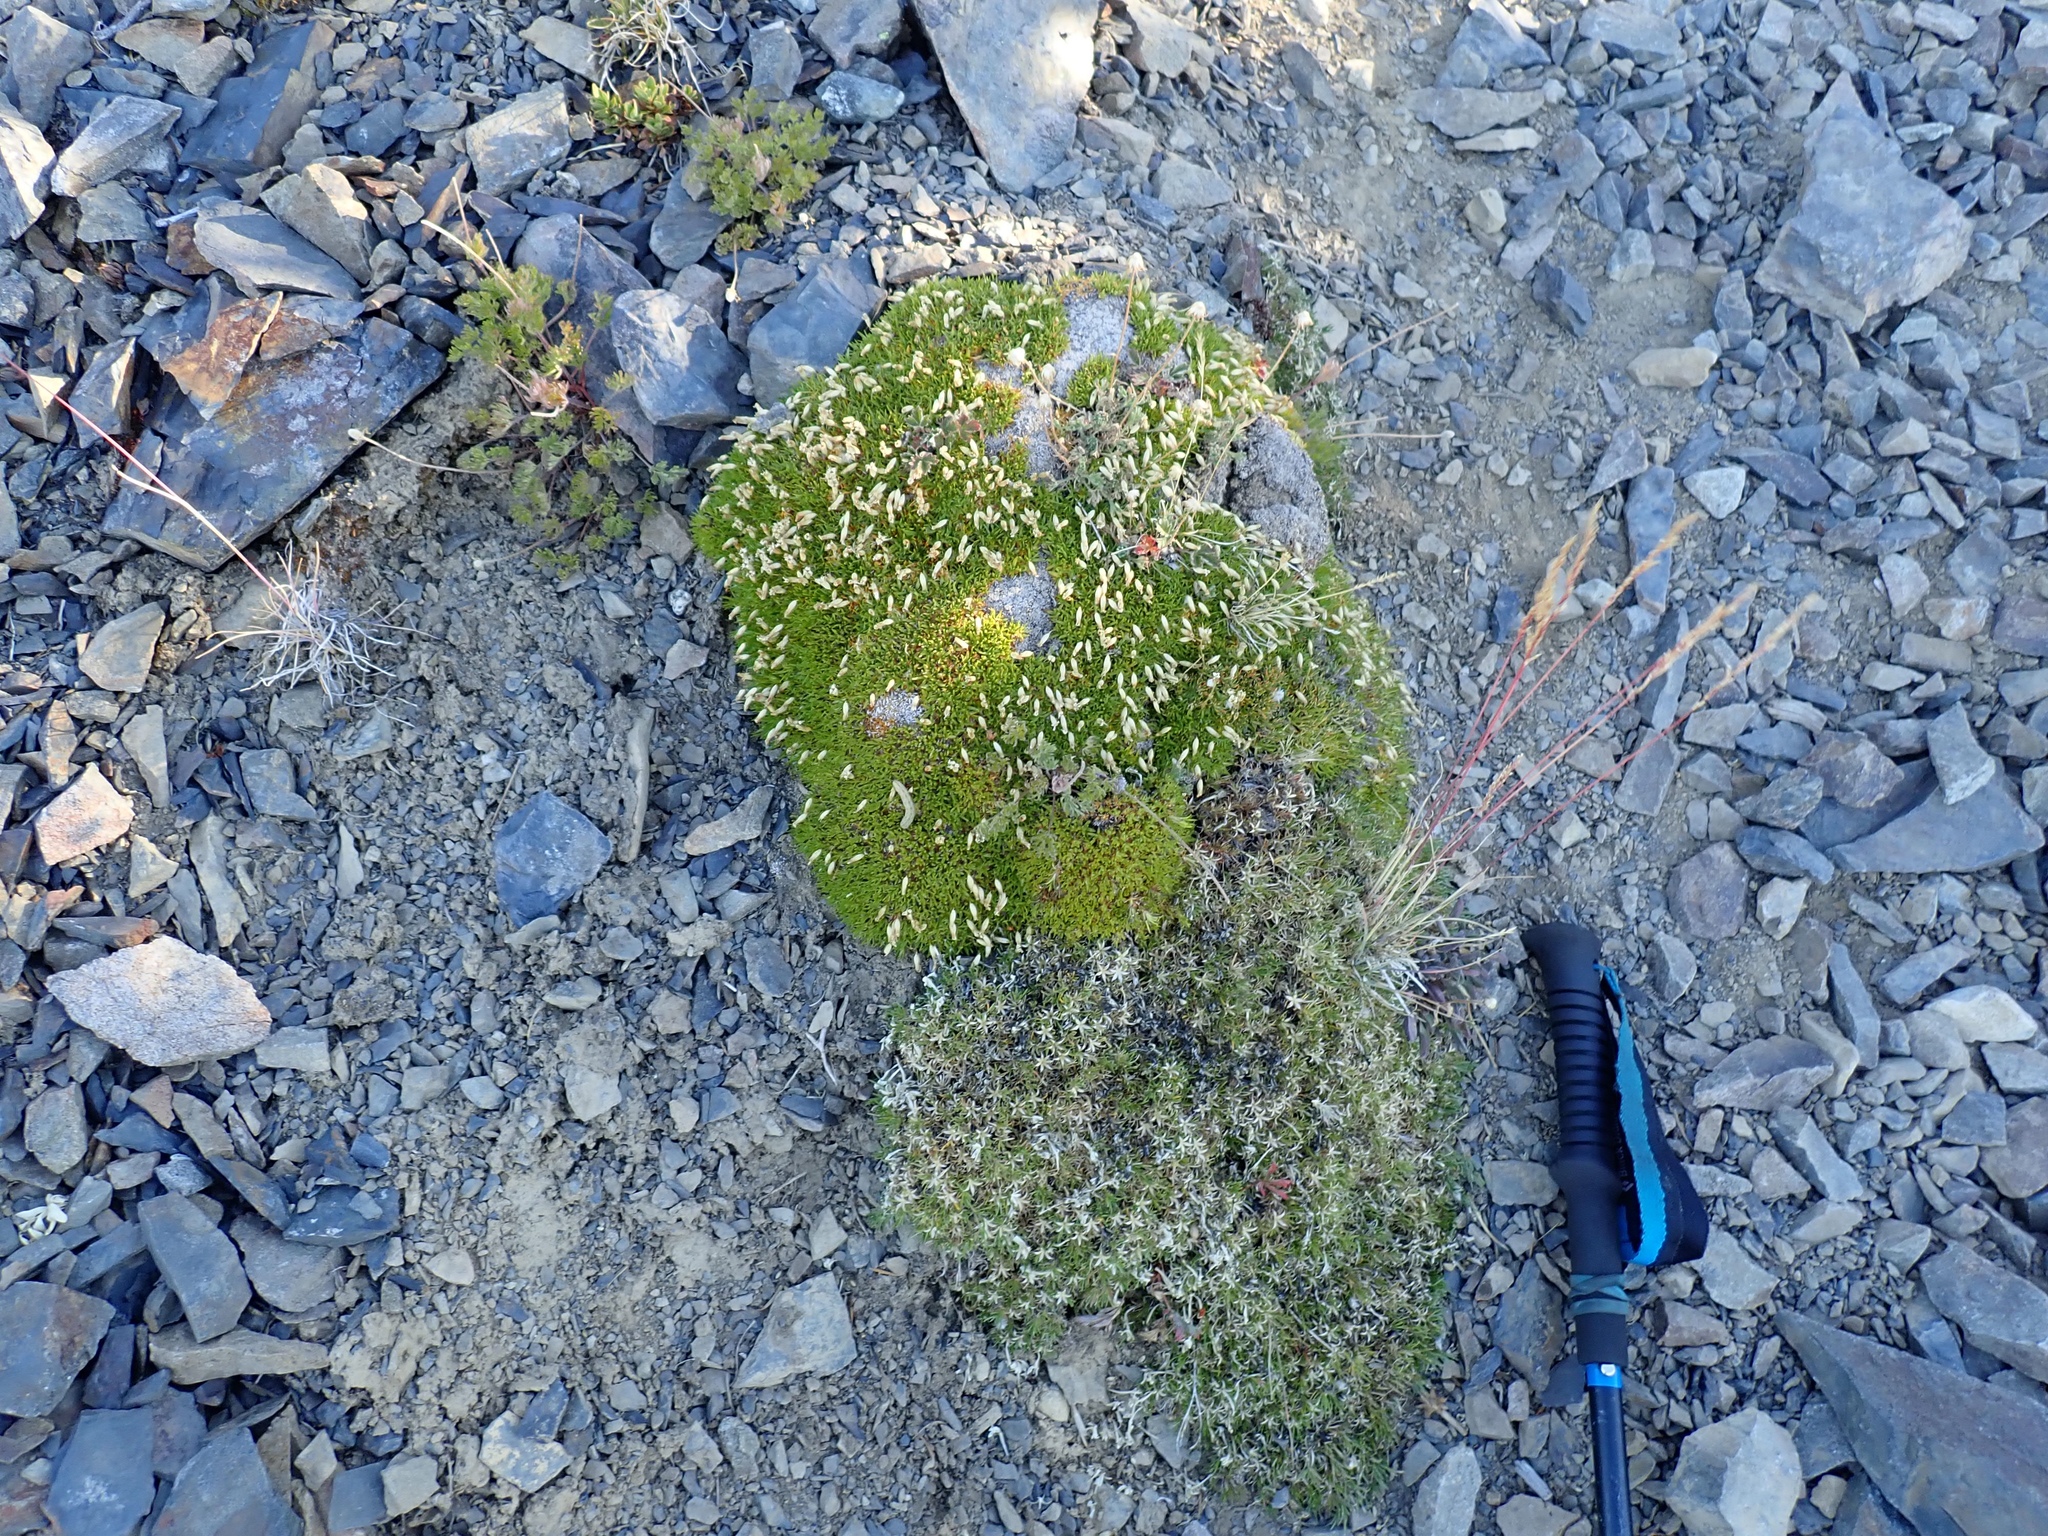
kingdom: Plantae
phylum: Tracheophyta
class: Magnoliopsida
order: Caryophyllales
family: Caryophyllaceae
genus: Silene
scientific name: Silene acaulis
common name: Moss campion
